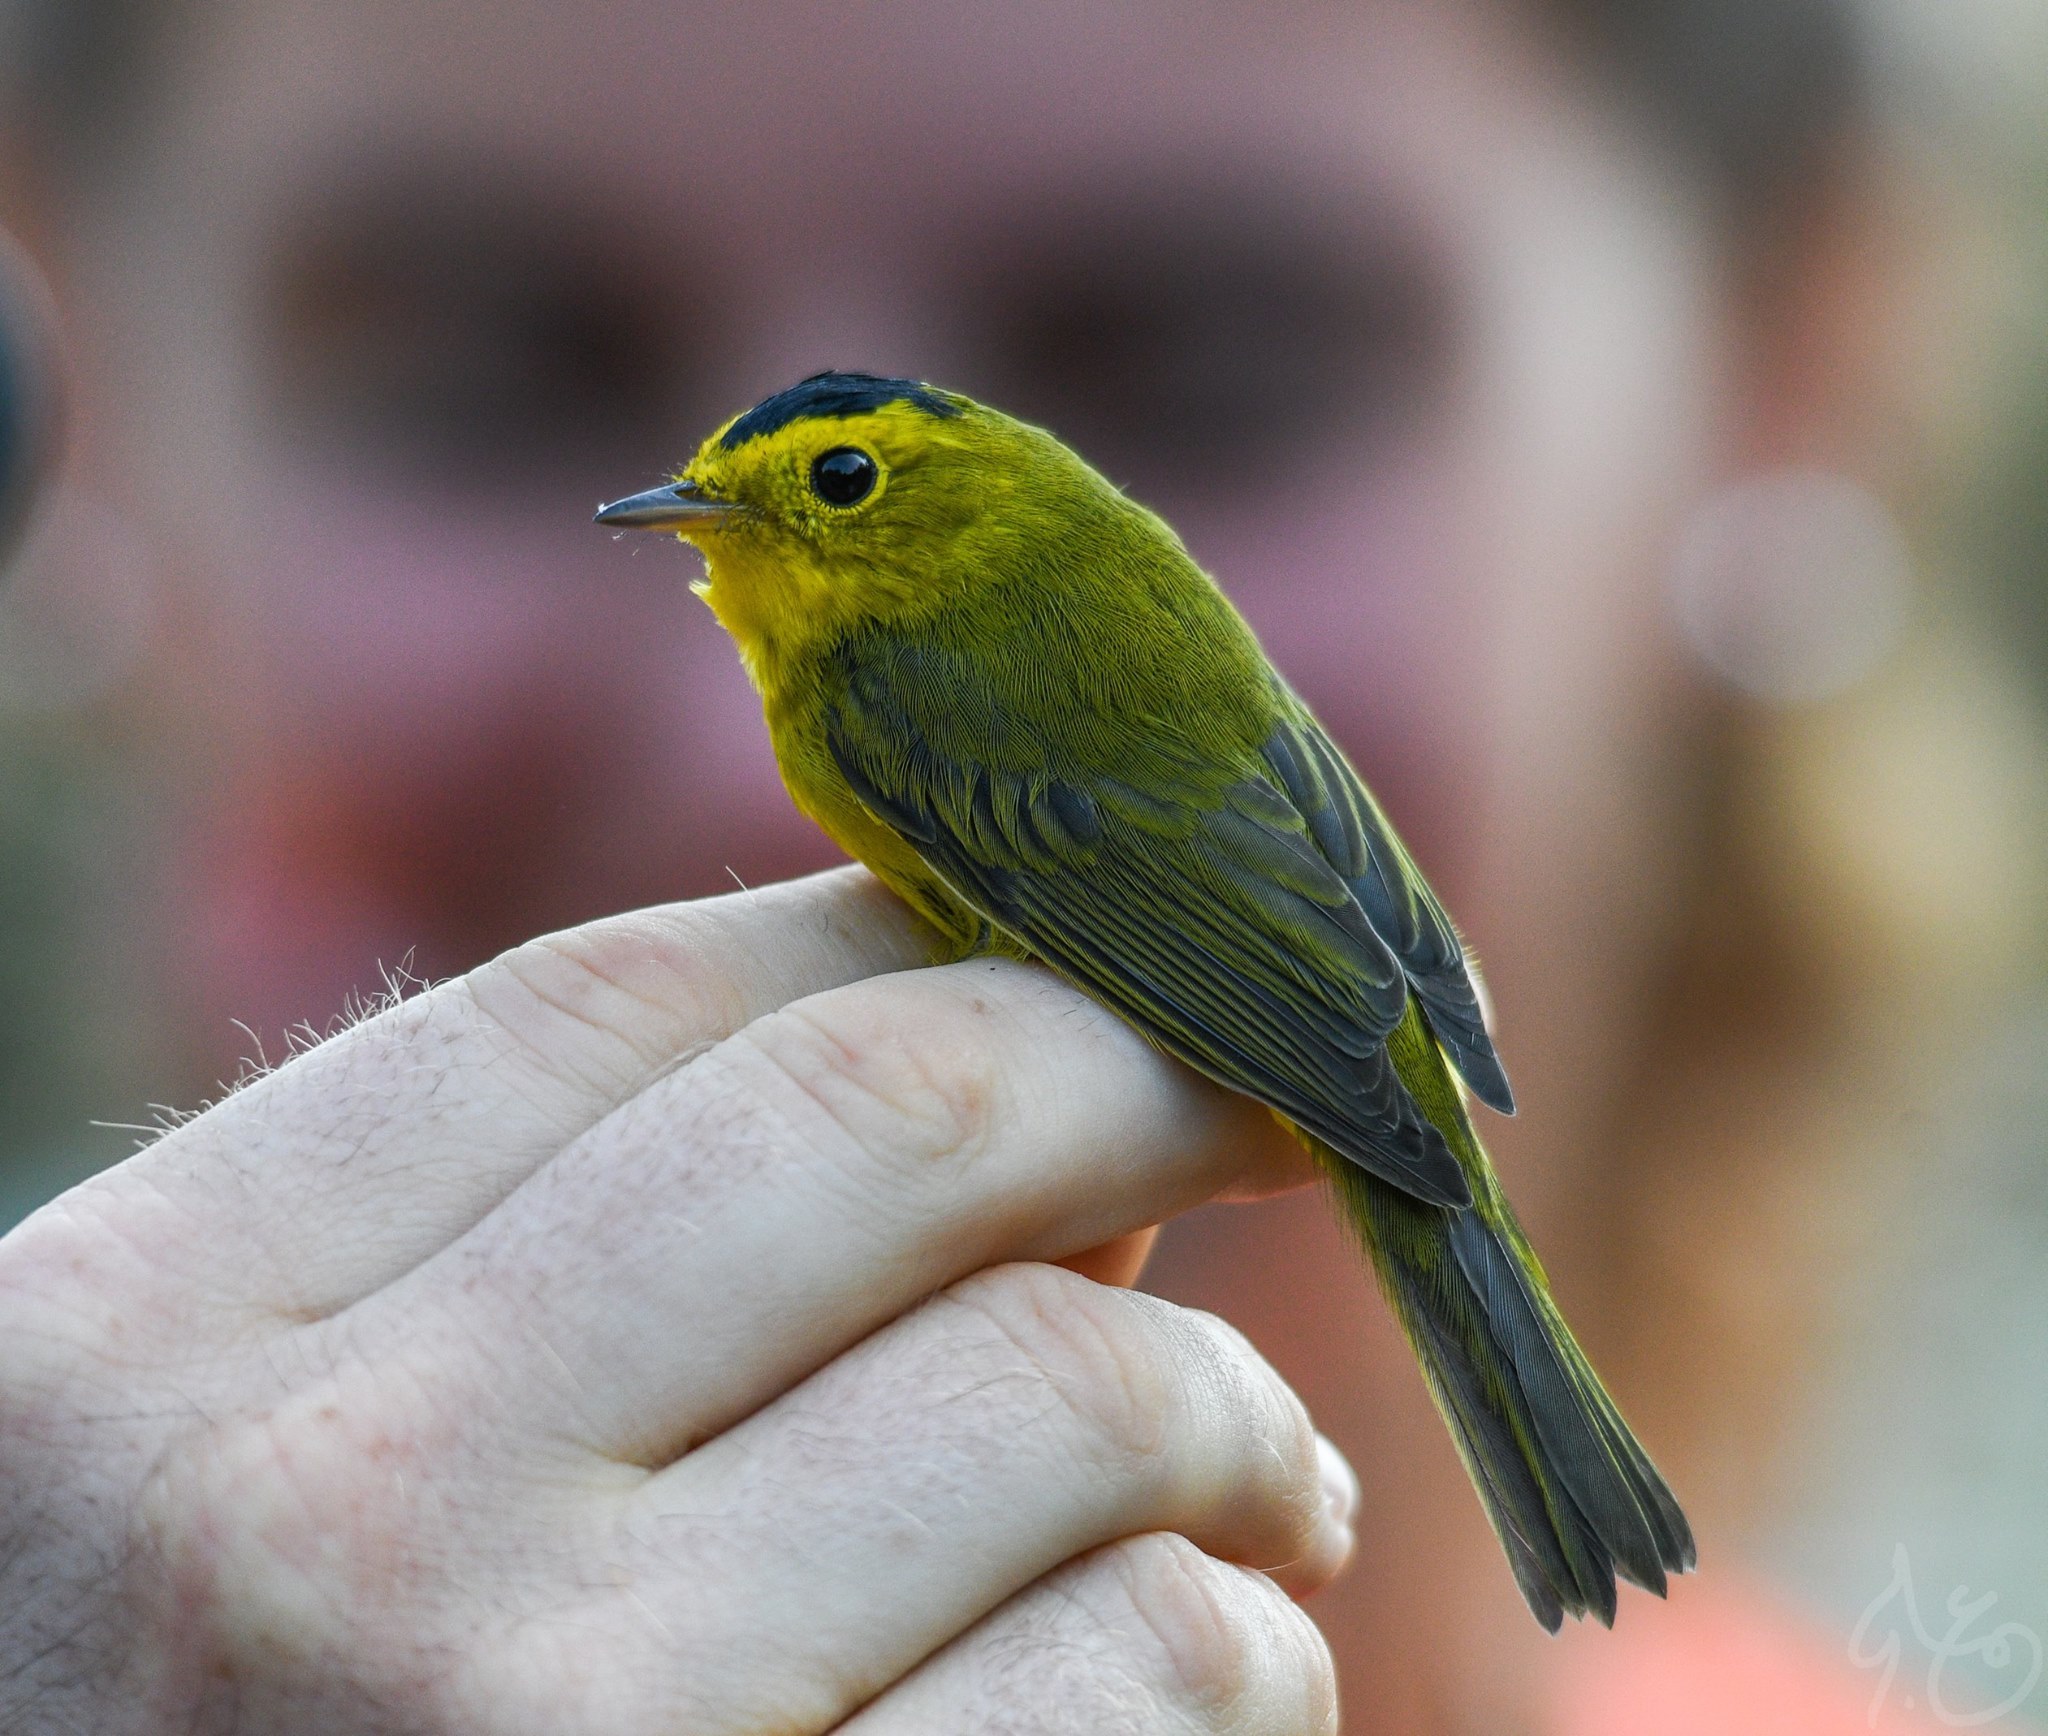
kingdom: Animalia
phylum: Chordata
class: Aves
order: Passeriformes
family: Parulidae
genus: Cardellina
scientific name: Cardellina pusilla
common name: Wilson's warbler
